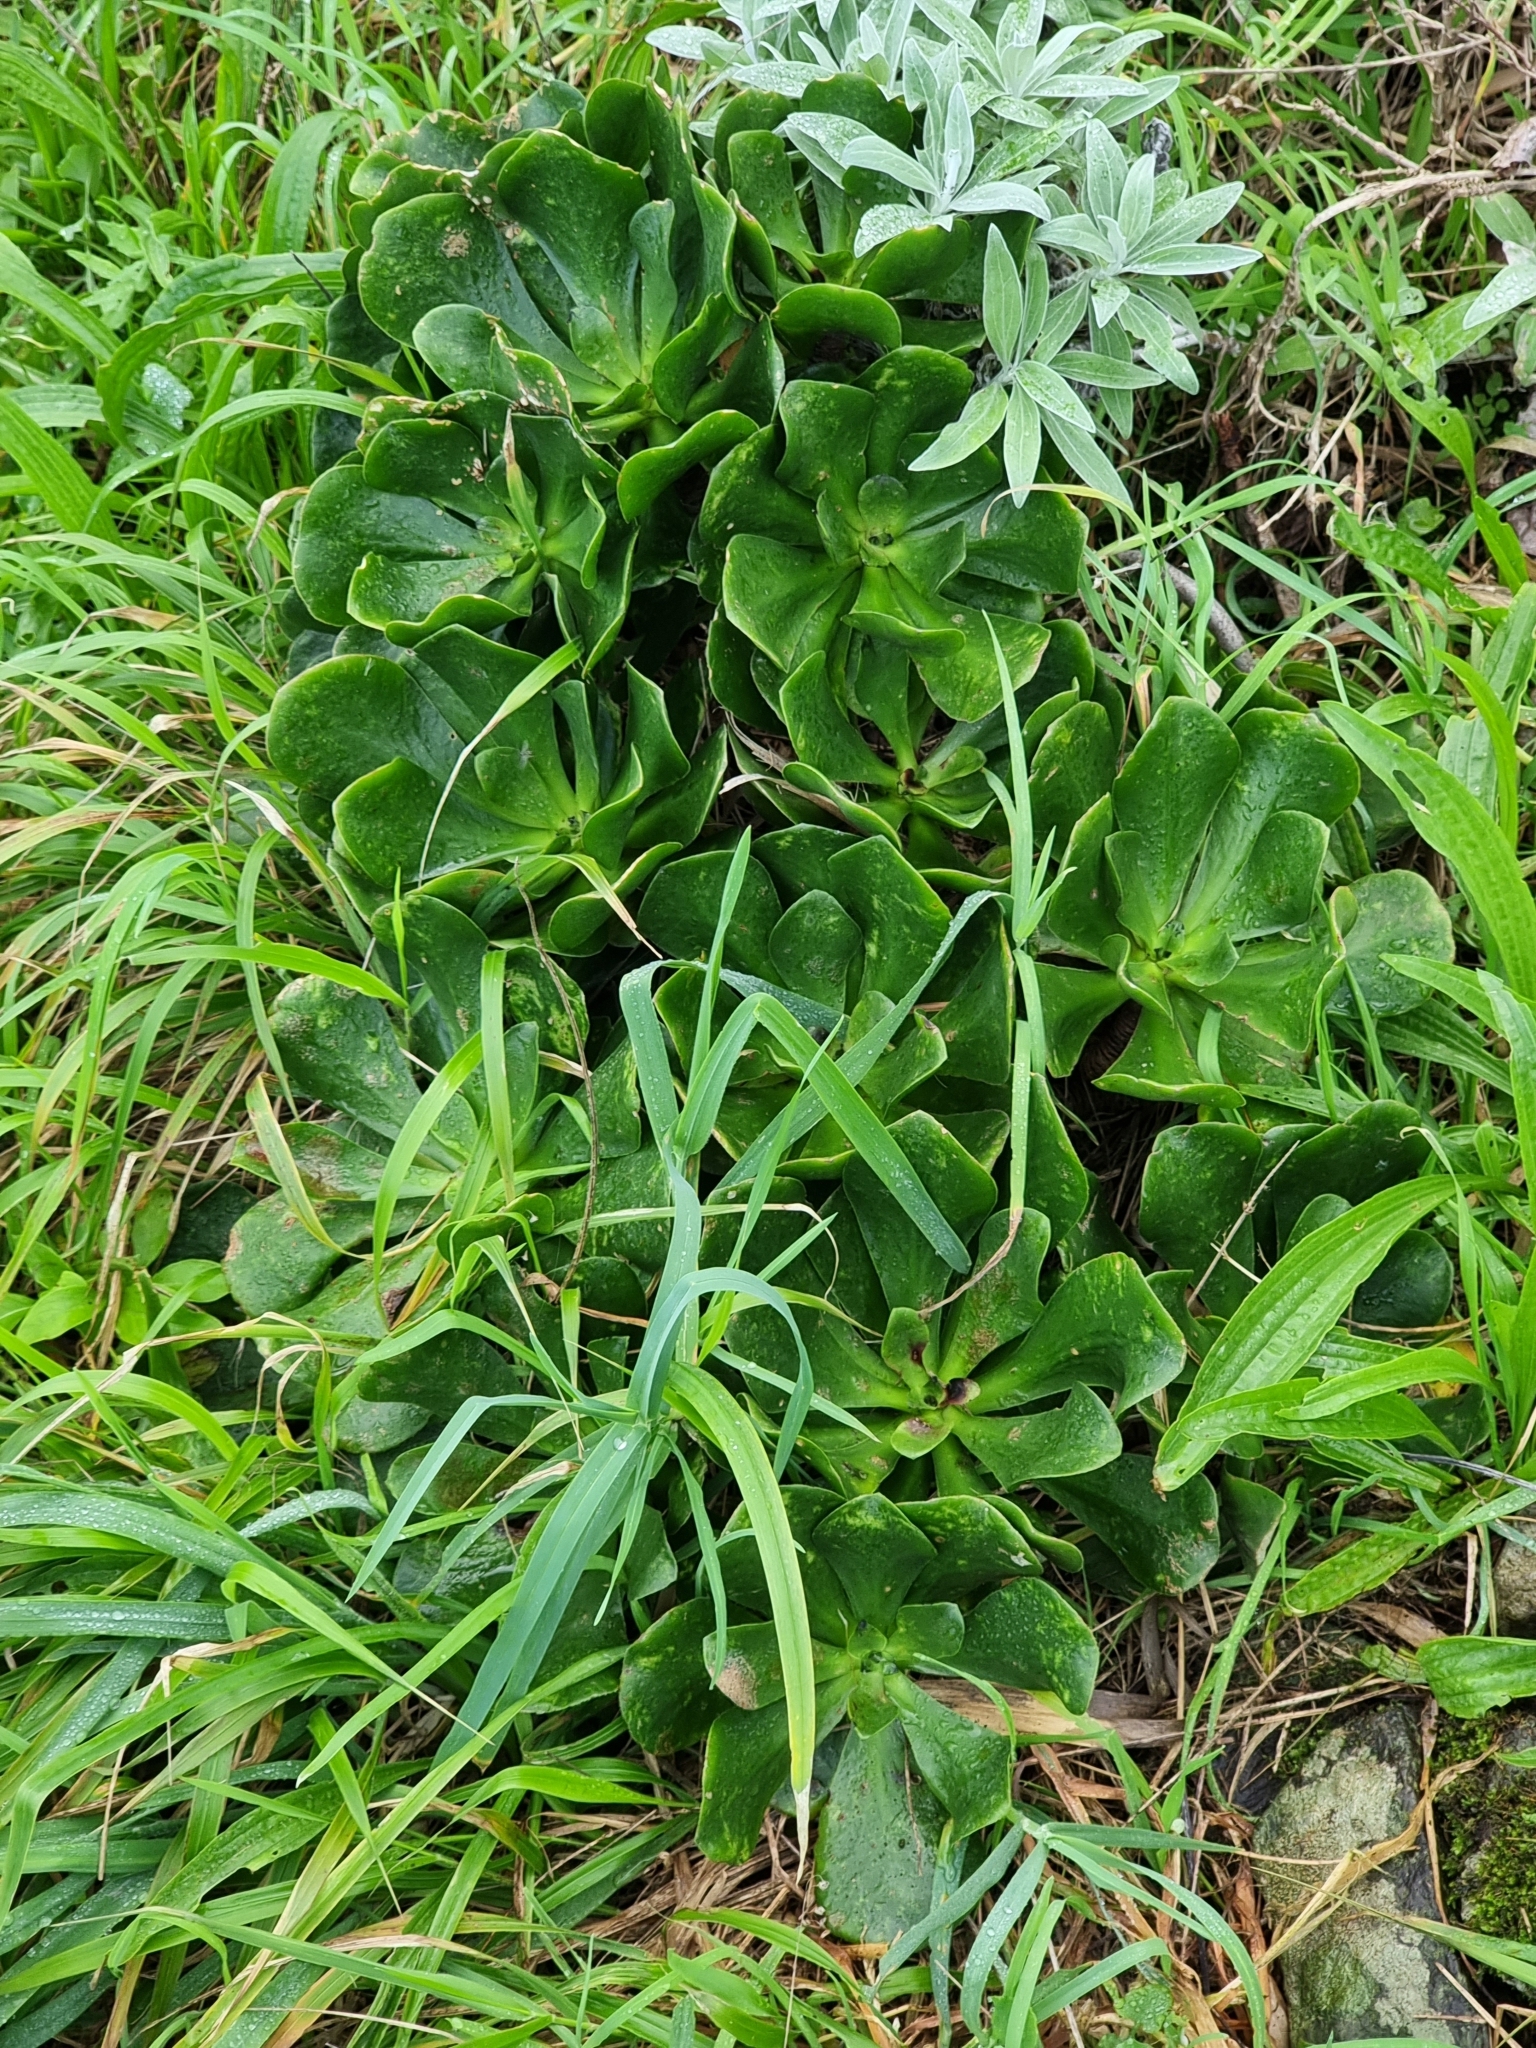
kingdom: Plantae
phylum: Tracheophyta
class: Magnoliopsida
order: Saxifragales
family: Crassulaceae
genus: Aeonium
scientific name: Aeonium glutinosum
